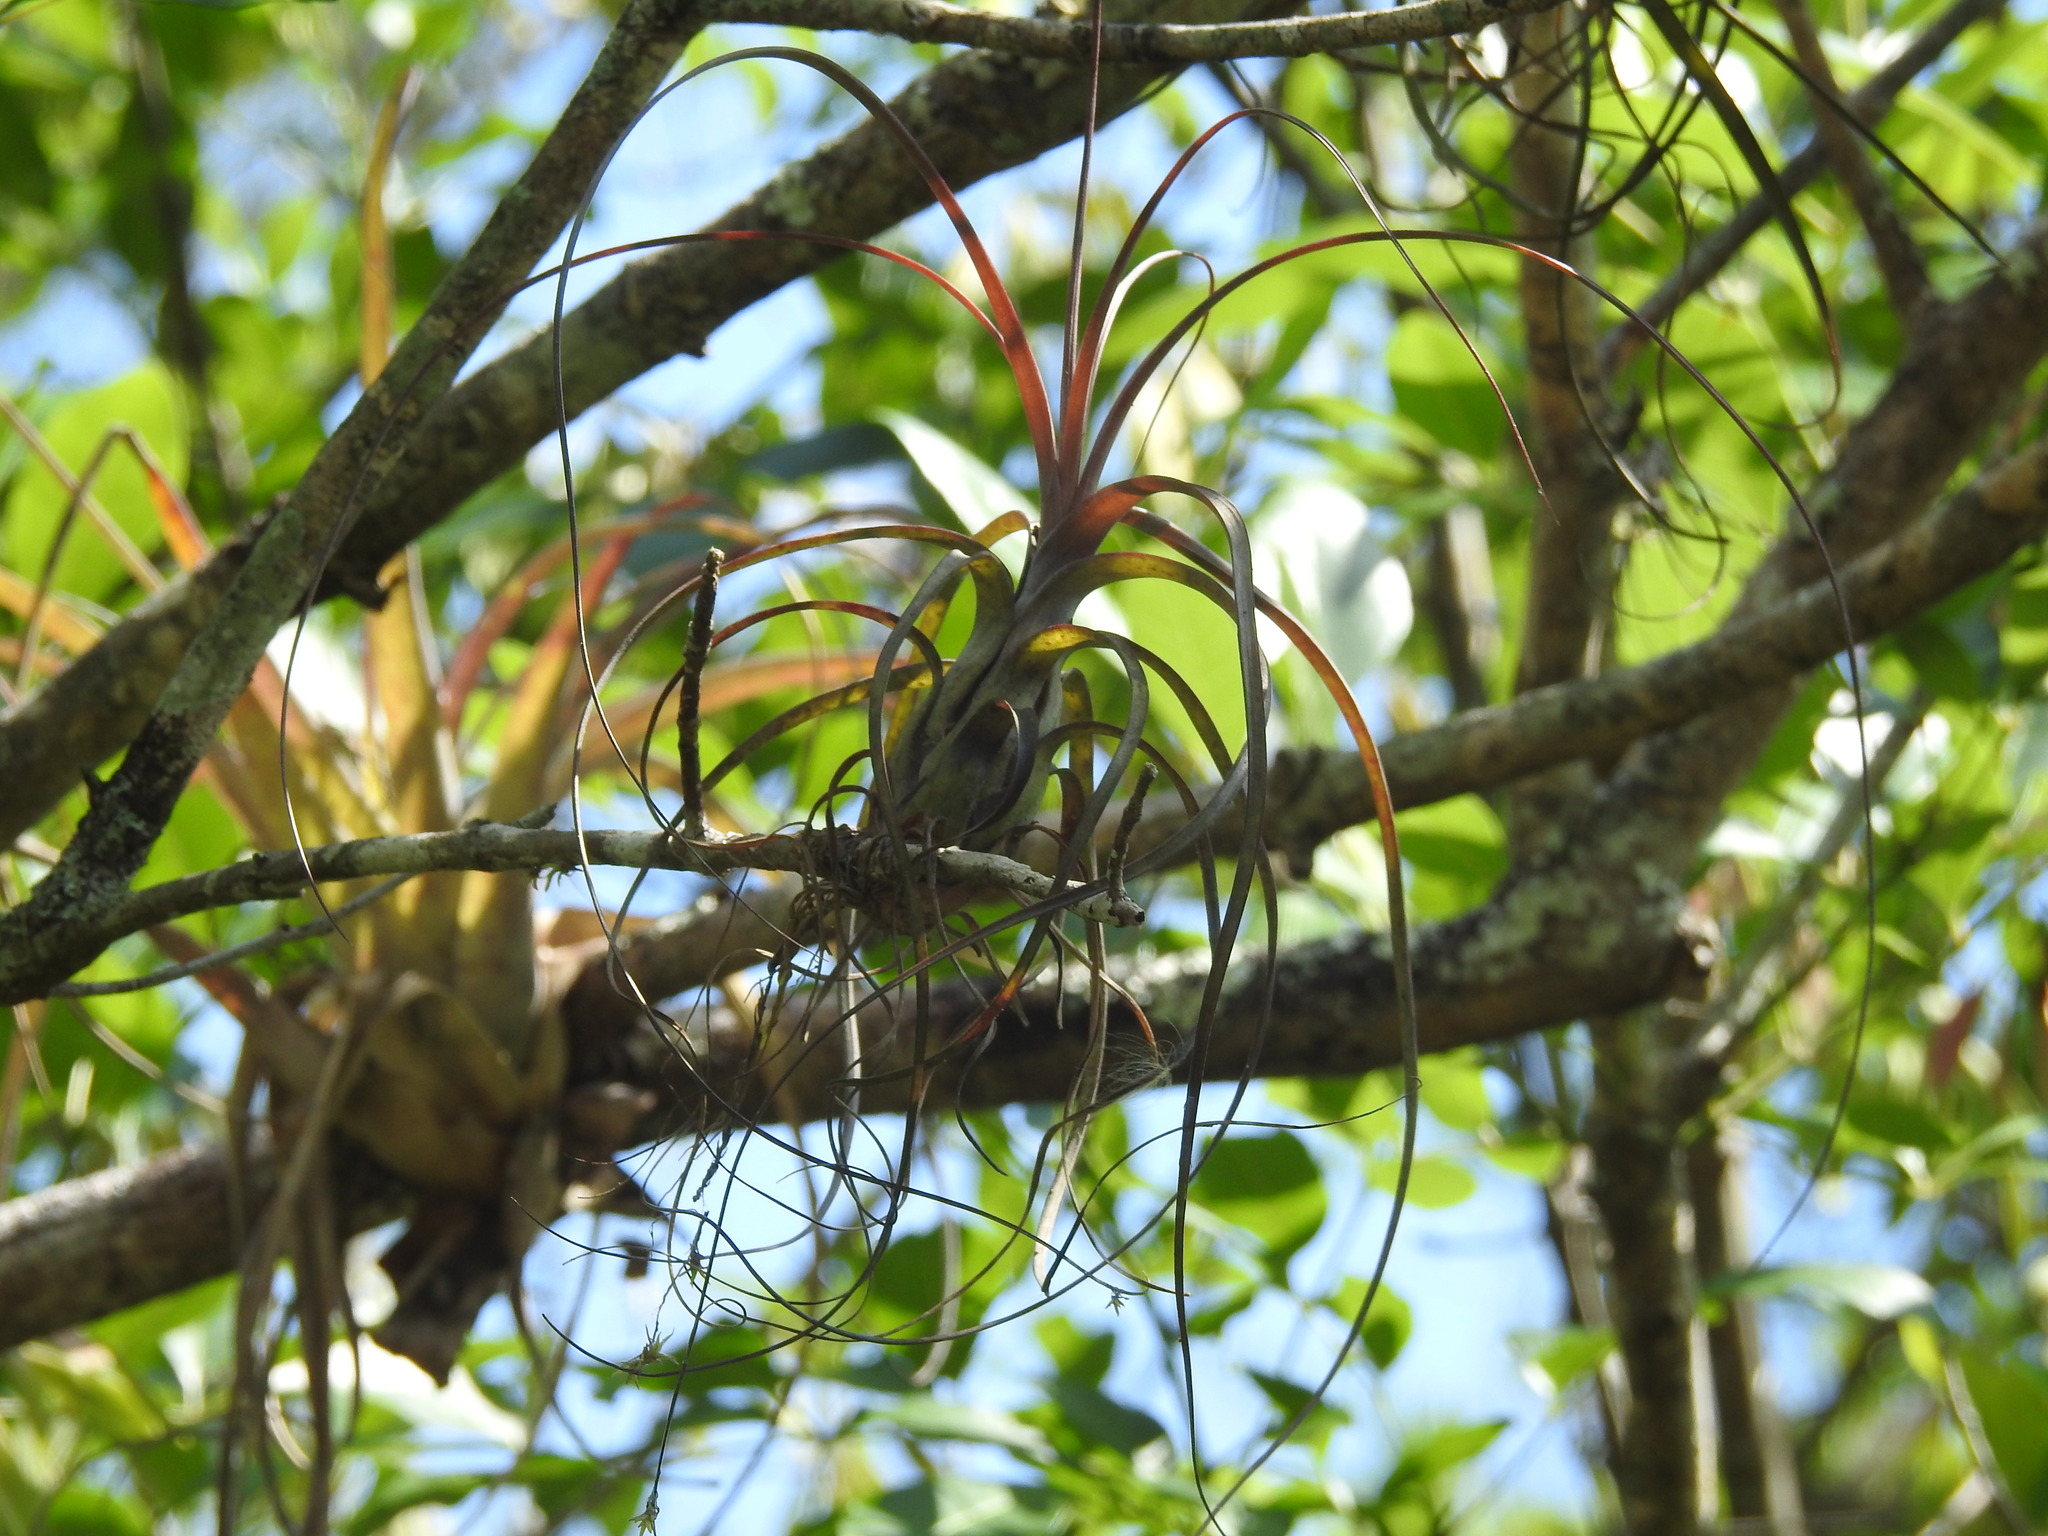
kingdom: Plantae
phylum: Tracheophyta
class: Liliopsida
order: Poales
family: Bromeliaceae
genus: Tillandsia
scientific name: Tillandsia balbisiana
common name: Northern needleleaf
